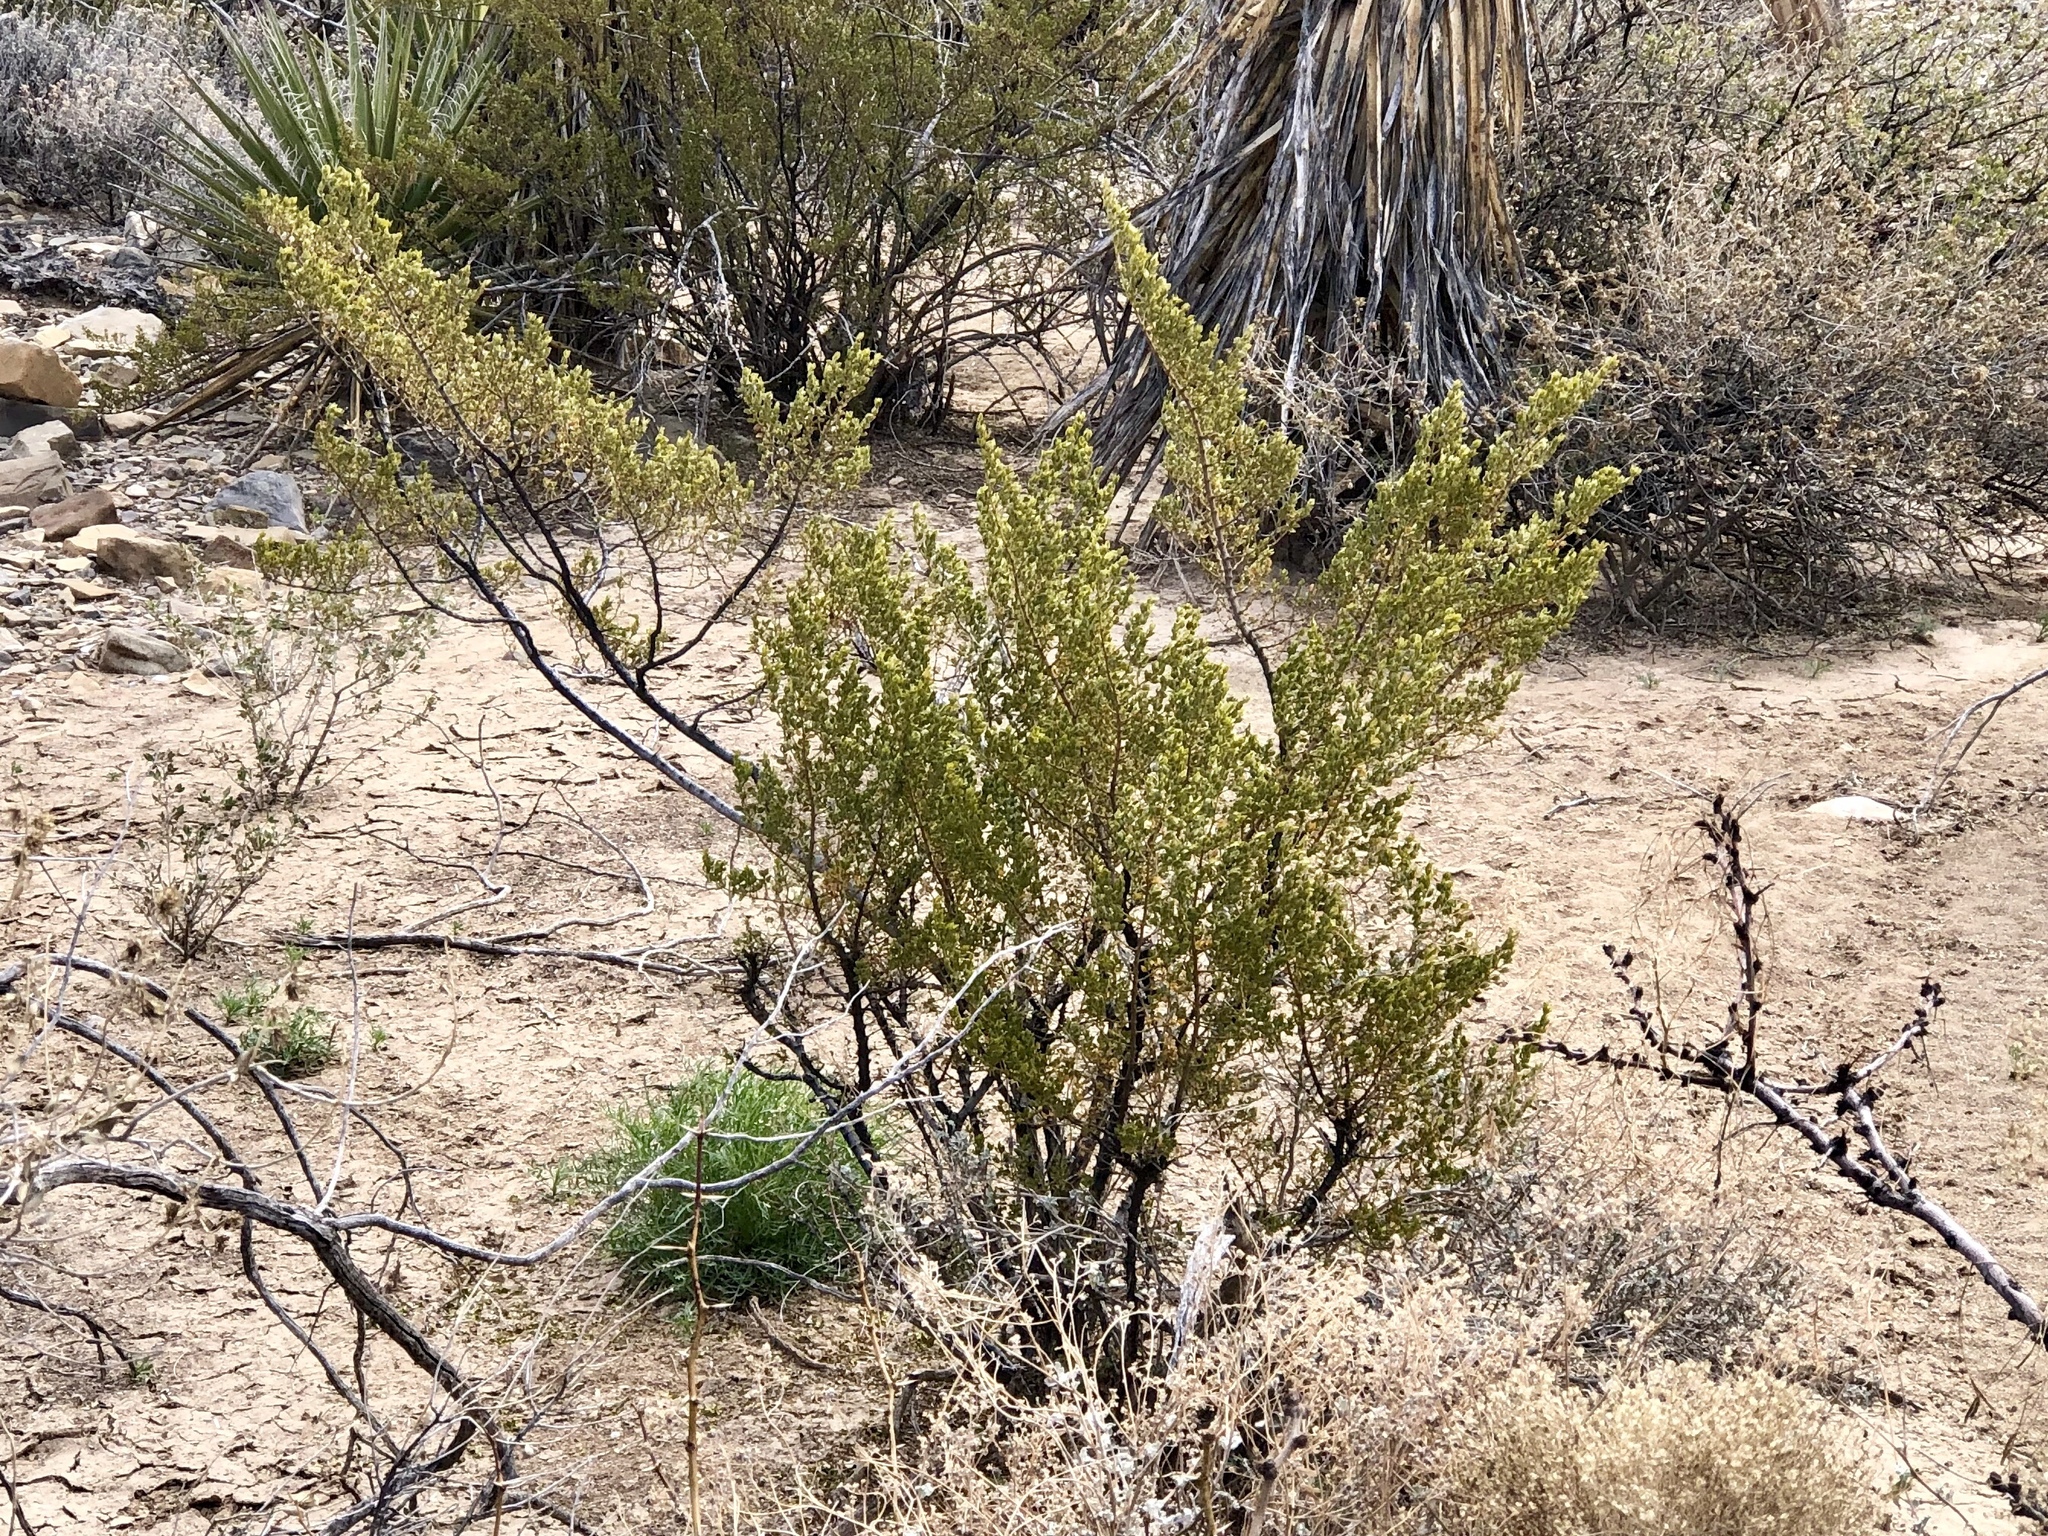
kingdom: Plantae
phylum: Tracheophyta
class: Magnoliopsida
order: Zygophyllales
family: Zygophyllaceae
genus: Larrea
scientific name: Larrea tridentata
